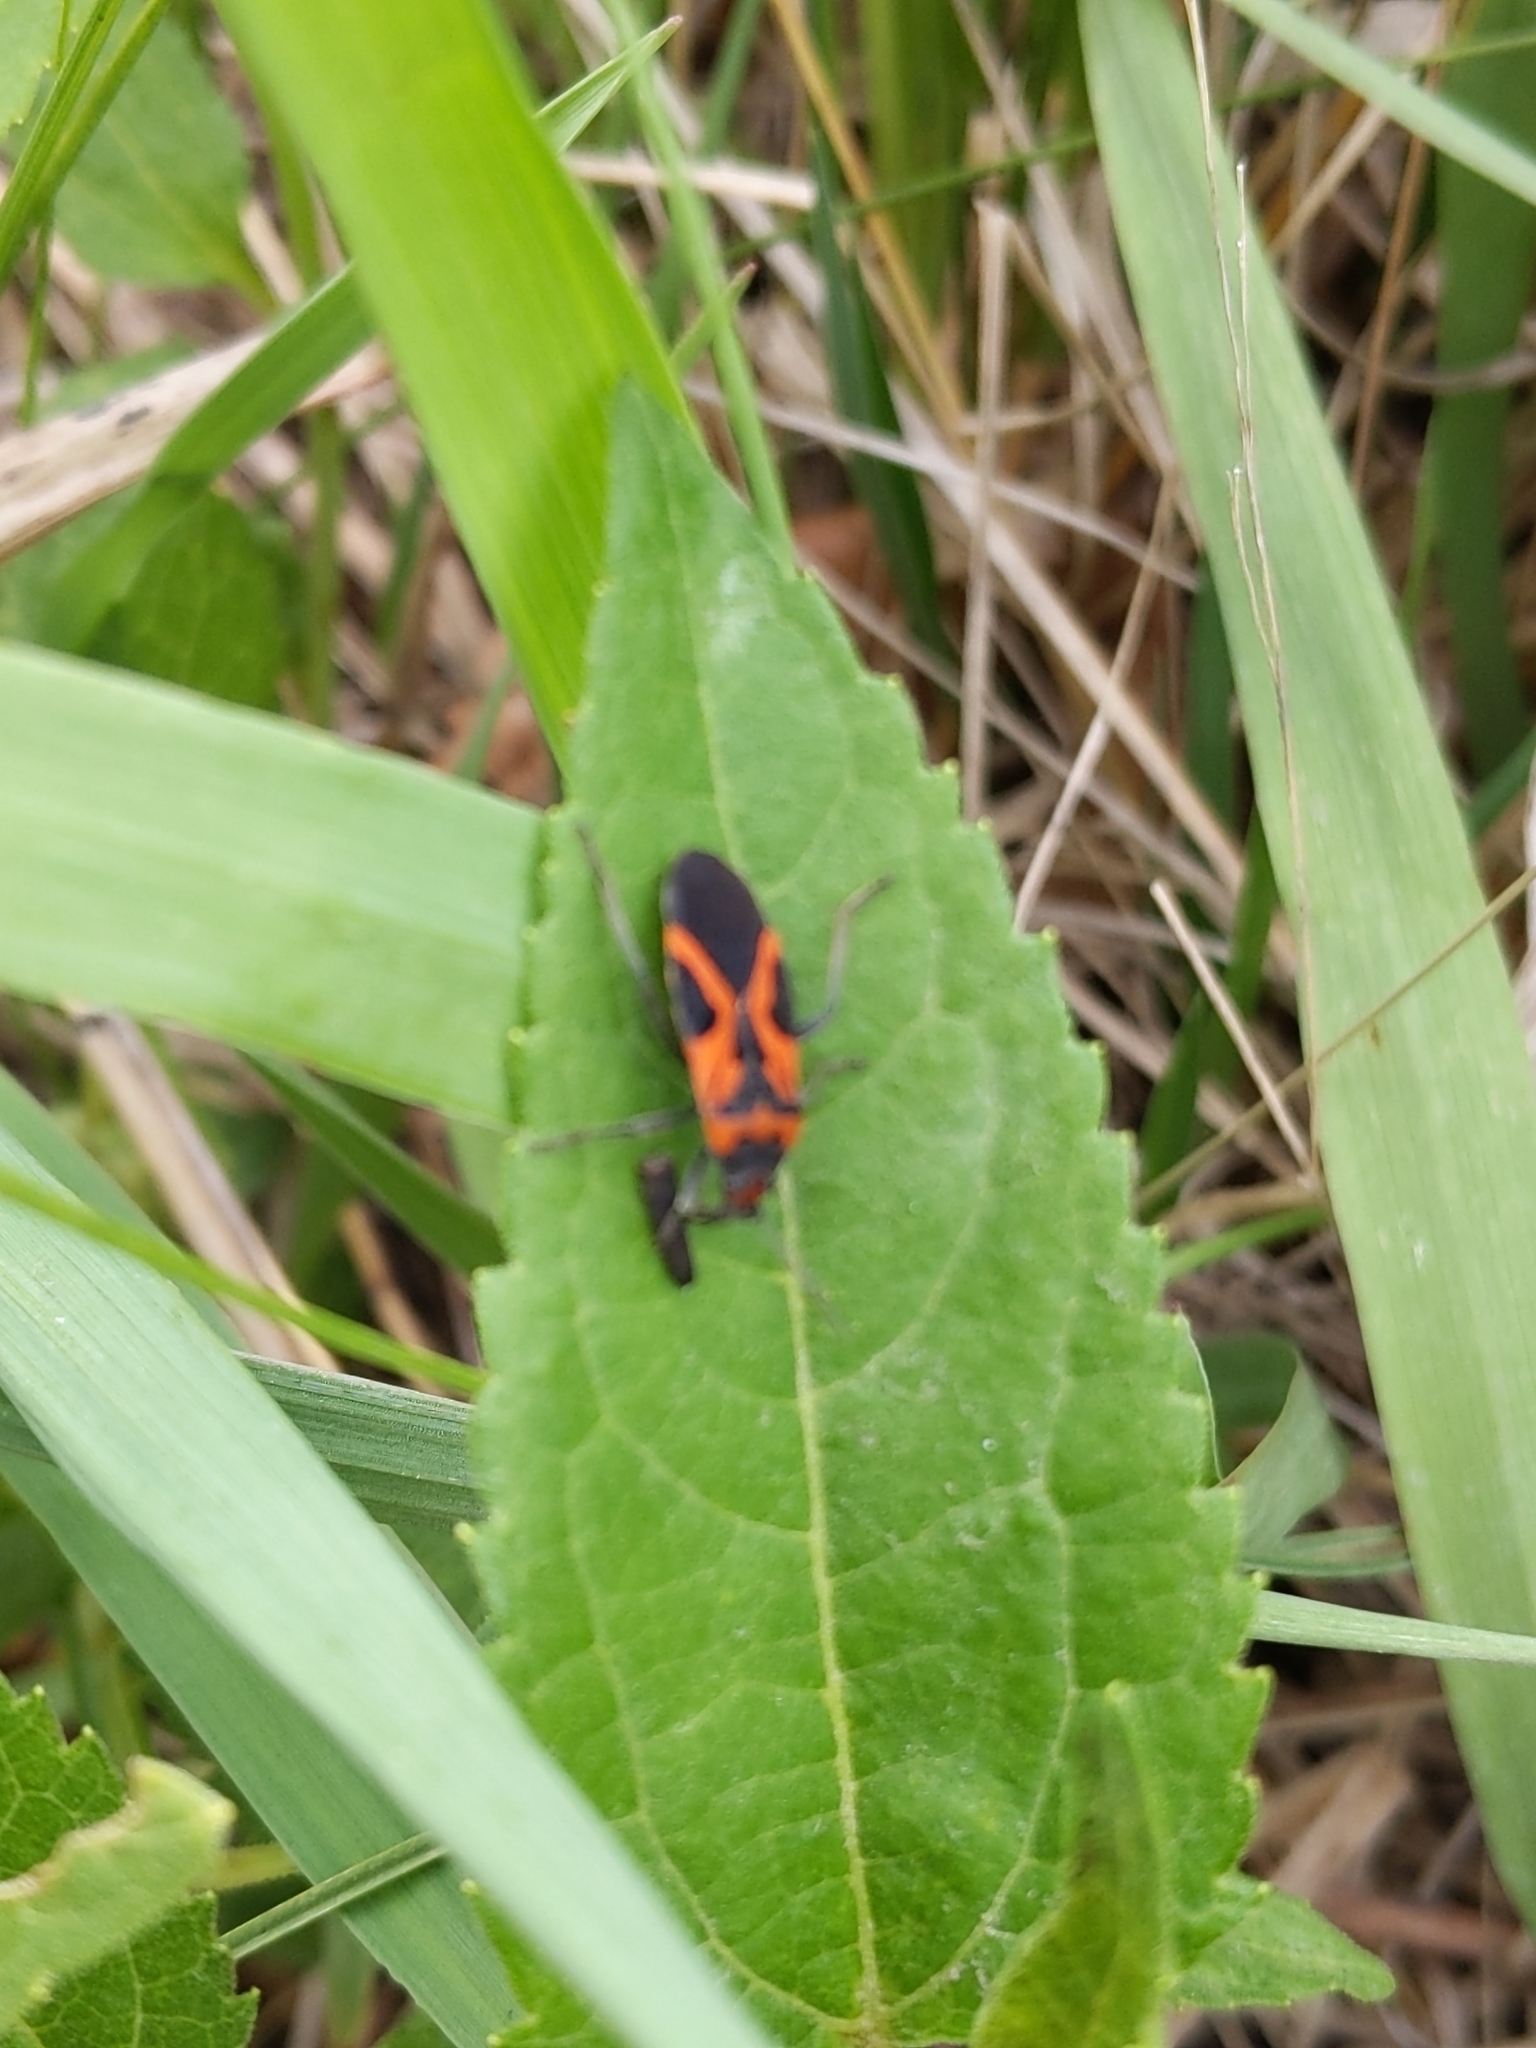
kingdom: Animalia
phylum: Arthropoda
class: Insecta
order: Hemiptera
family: Lygaeidae
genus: Lygaeus
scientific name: Lygaeus turcicus
